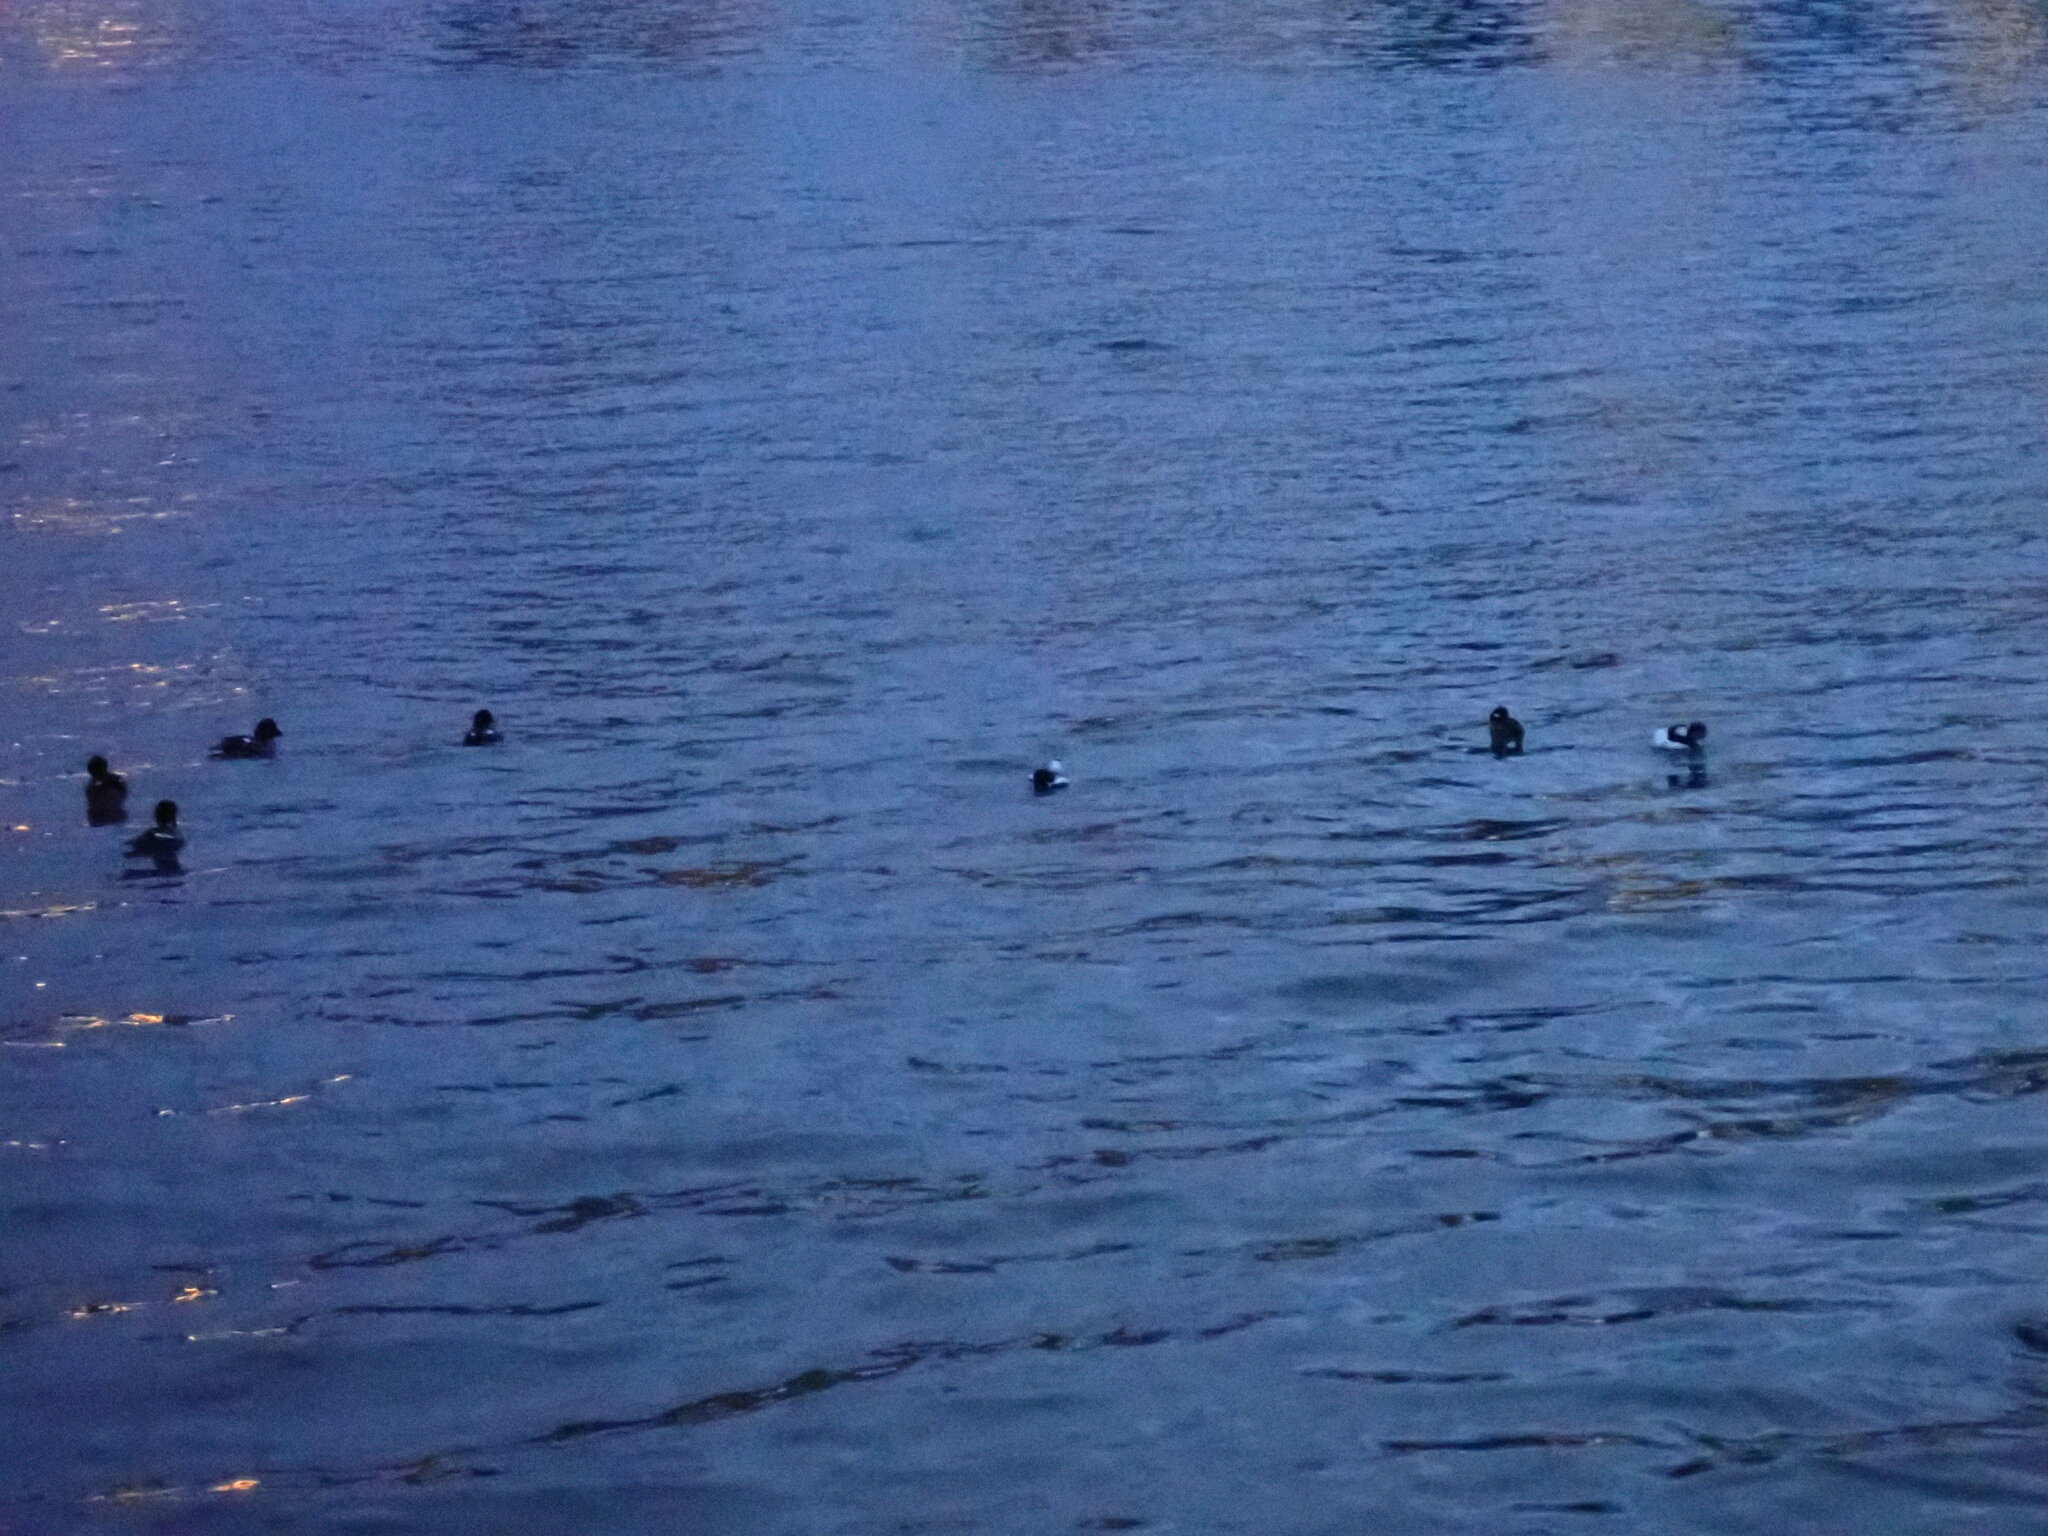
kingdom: Animalia
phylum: Chordata
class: Aves
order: Anseriformes
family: Anatidae
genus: Bucephala
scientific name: Bucephala albeola
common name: Bufflehead
